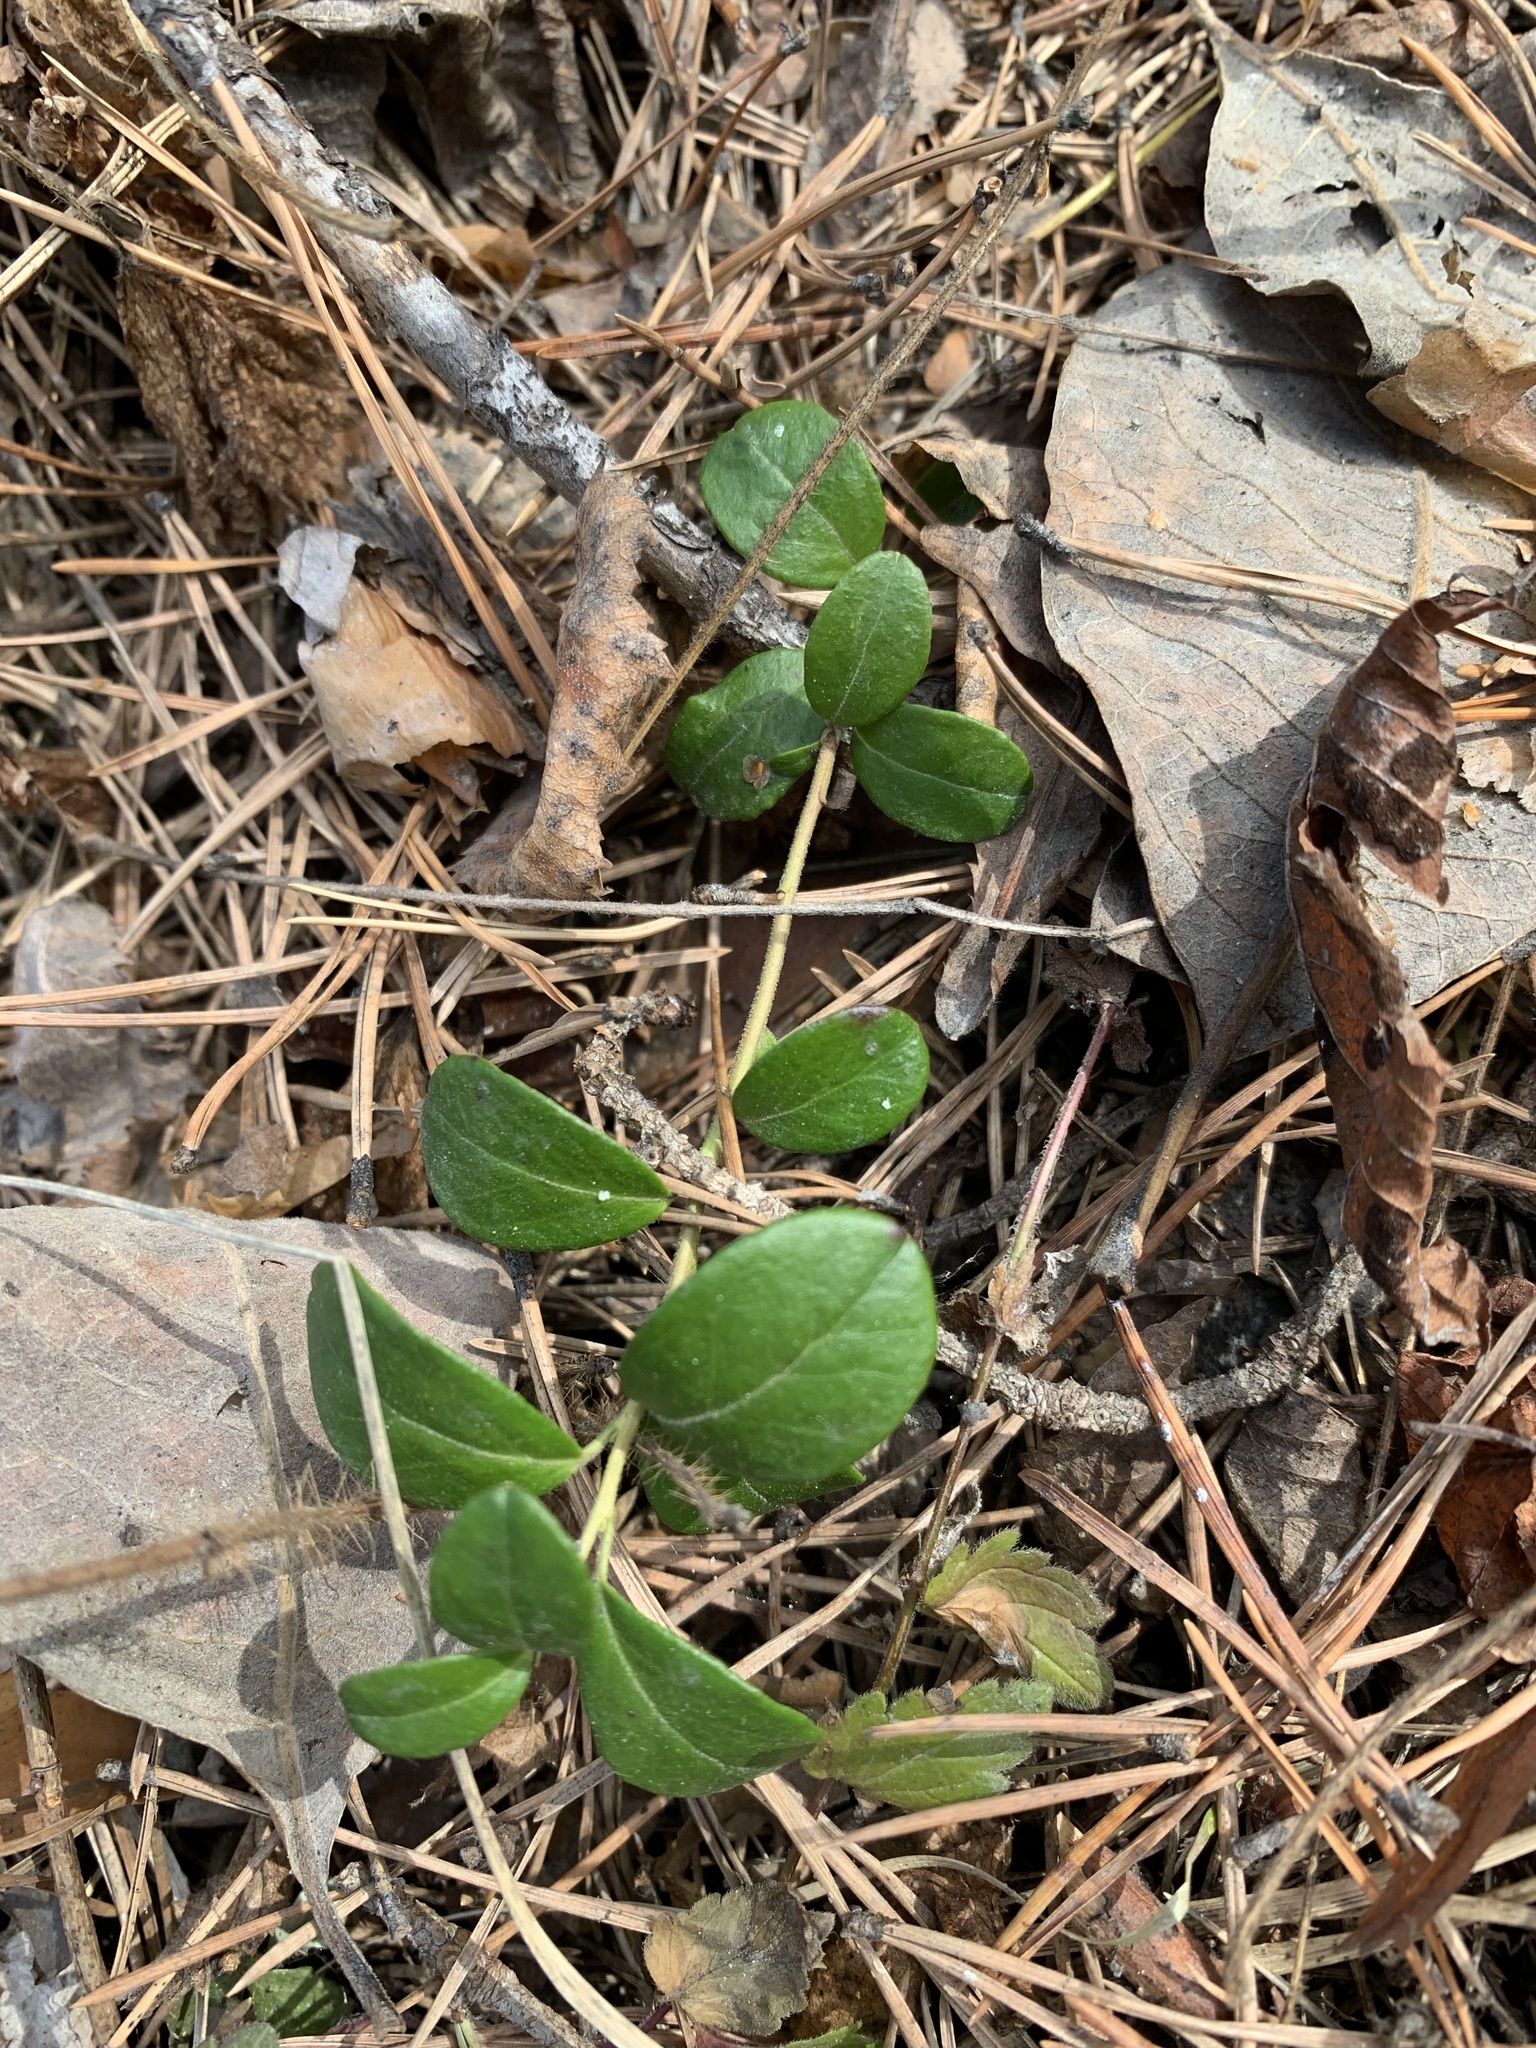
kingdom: Plantae
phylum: Tracheophyta
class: Magnoliopsida
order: Ericales
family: Ericaceae
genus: Vaccinium
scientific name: Vaccinium vitis-idaea
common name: Cowberry
